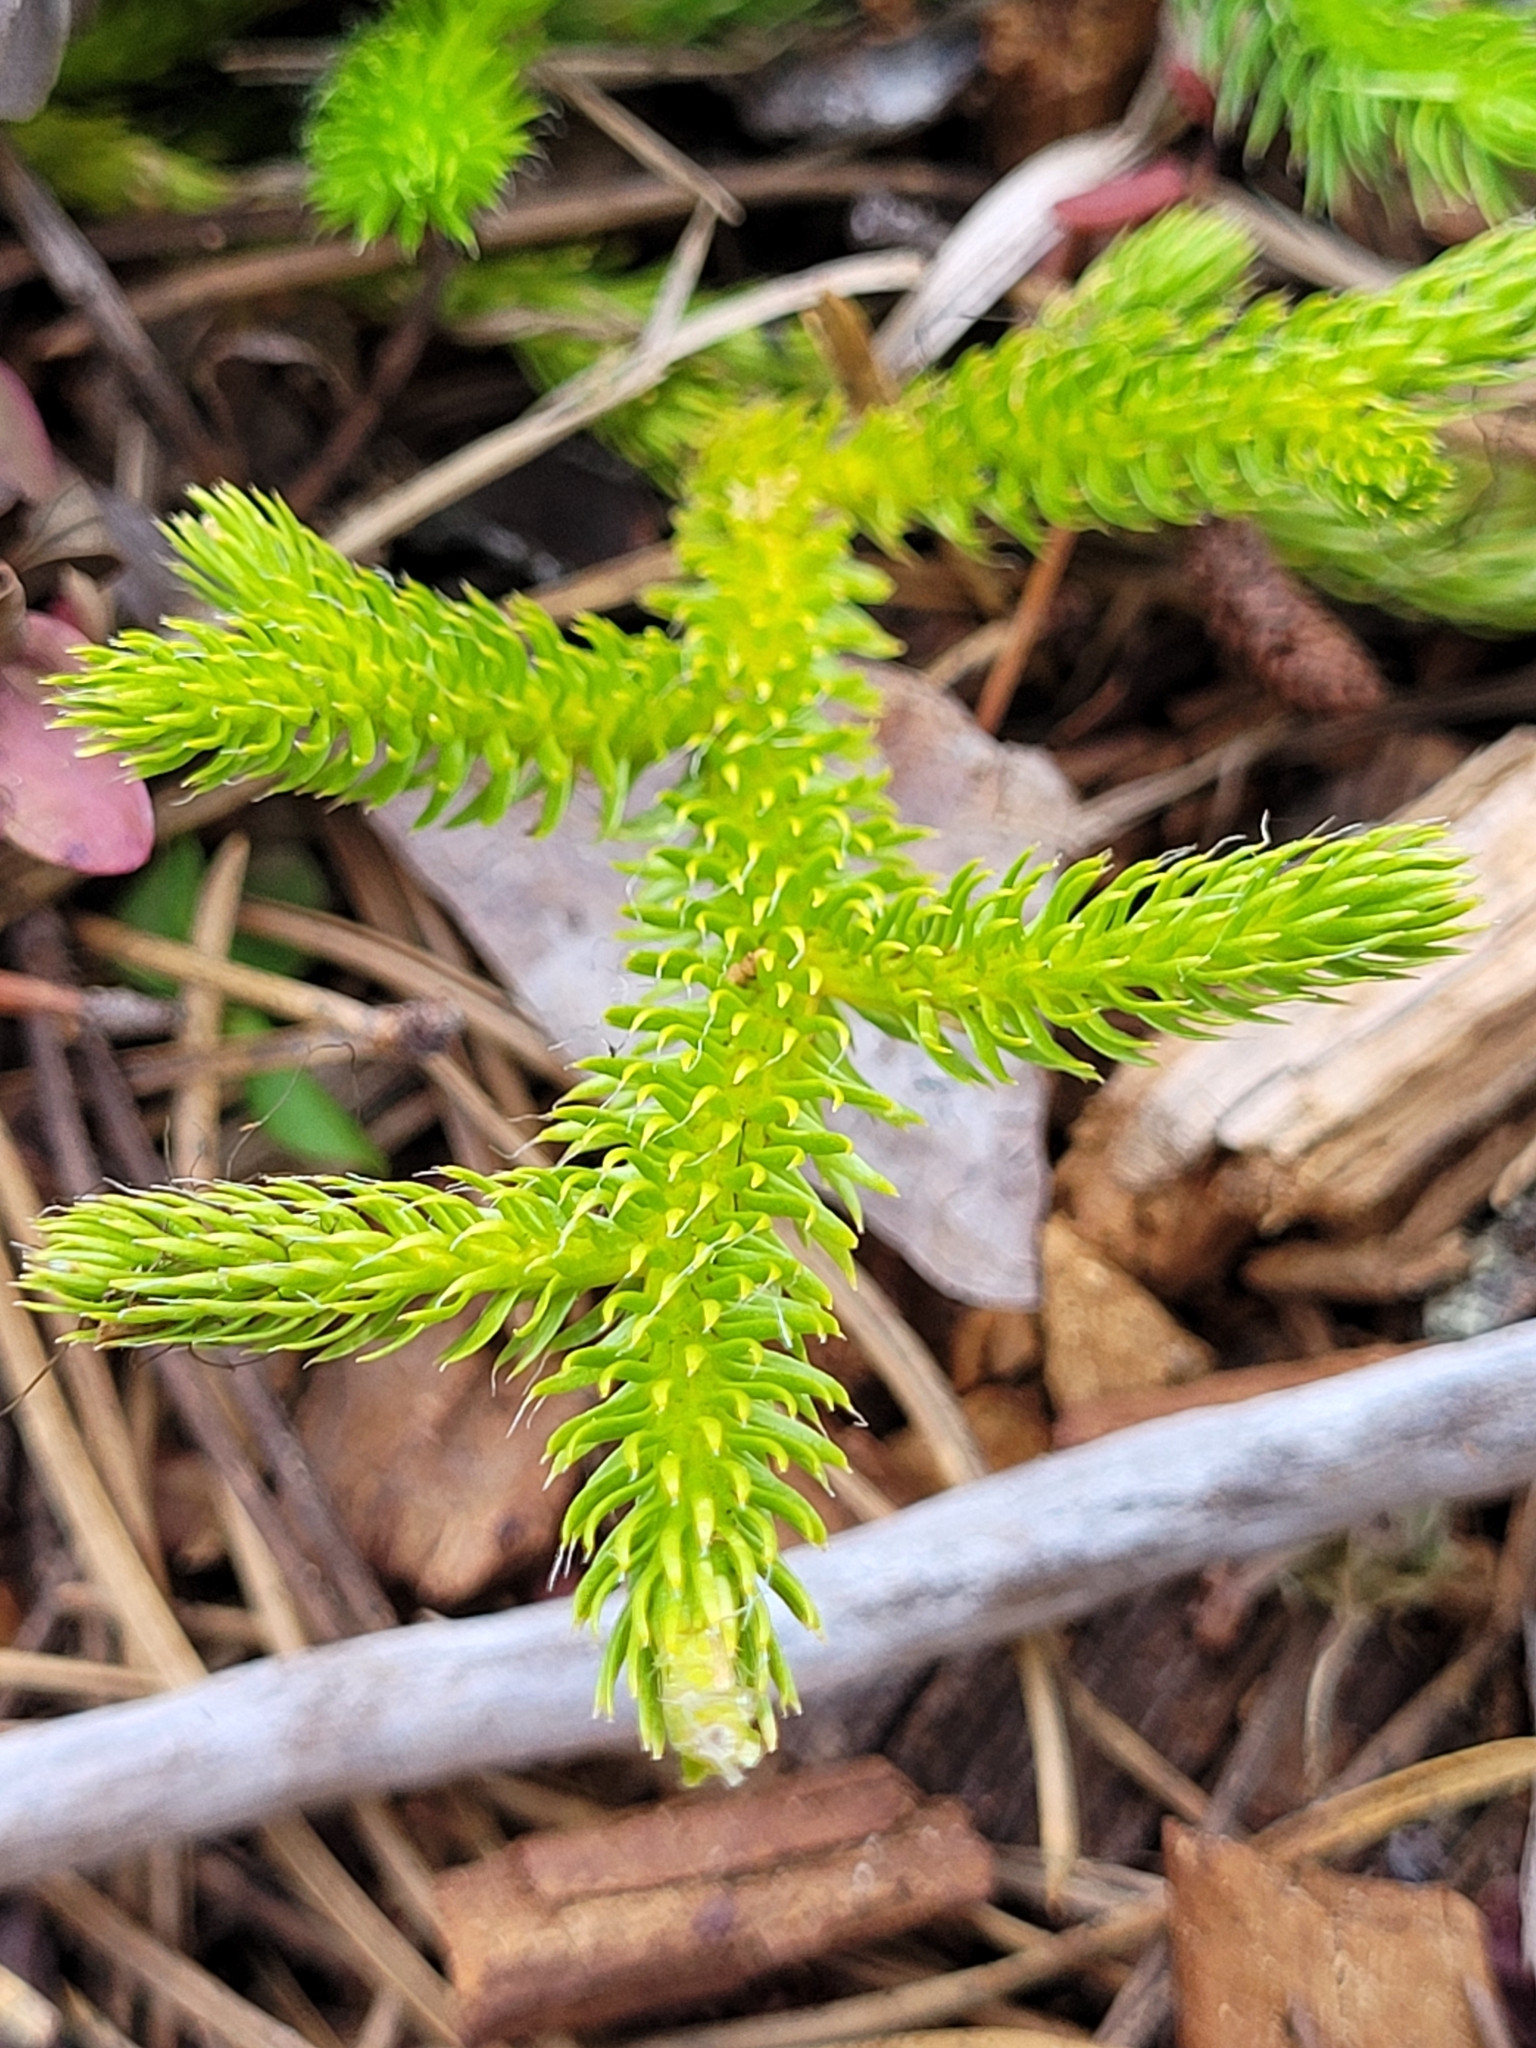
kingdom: Plantae
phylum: Tracheophyta
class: Lycopodiopsida
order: Lycopodiales
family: Lycopodiaceae
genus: Lycopodium
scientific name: Lycopodium lagopus
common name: One-cone clubmoss
